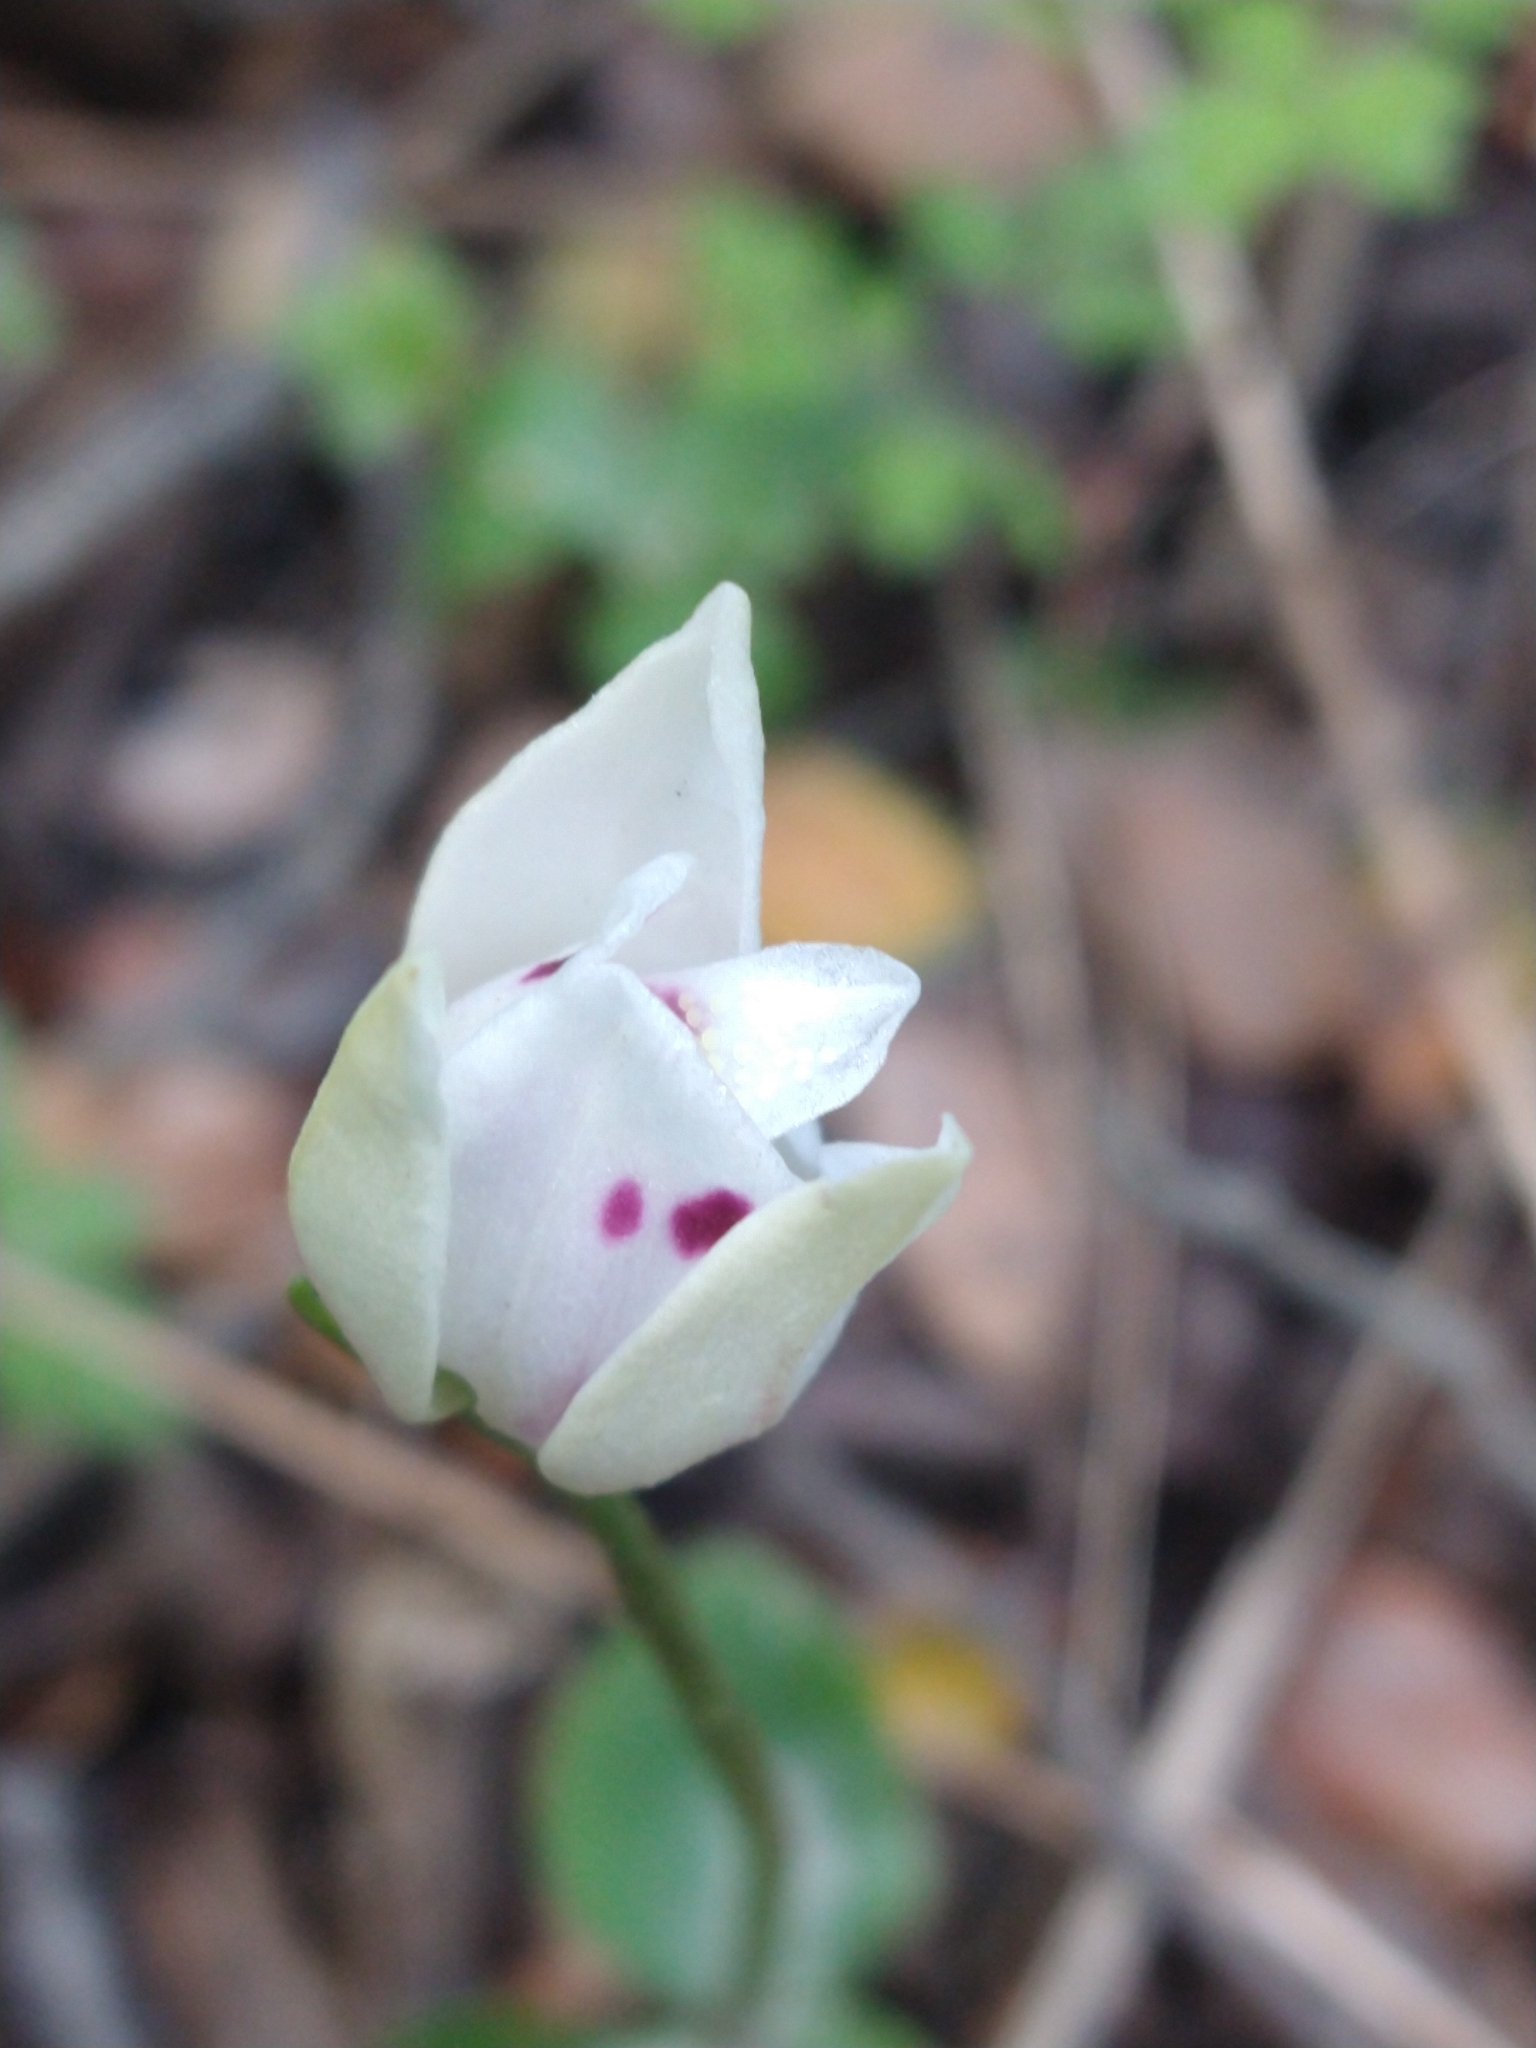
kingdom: Plantae
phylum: Tracheophyta
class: Liliopsida
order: Asparagales
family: Orchidaceae
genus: Codonorchis
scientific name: Codonorchis lessonii
